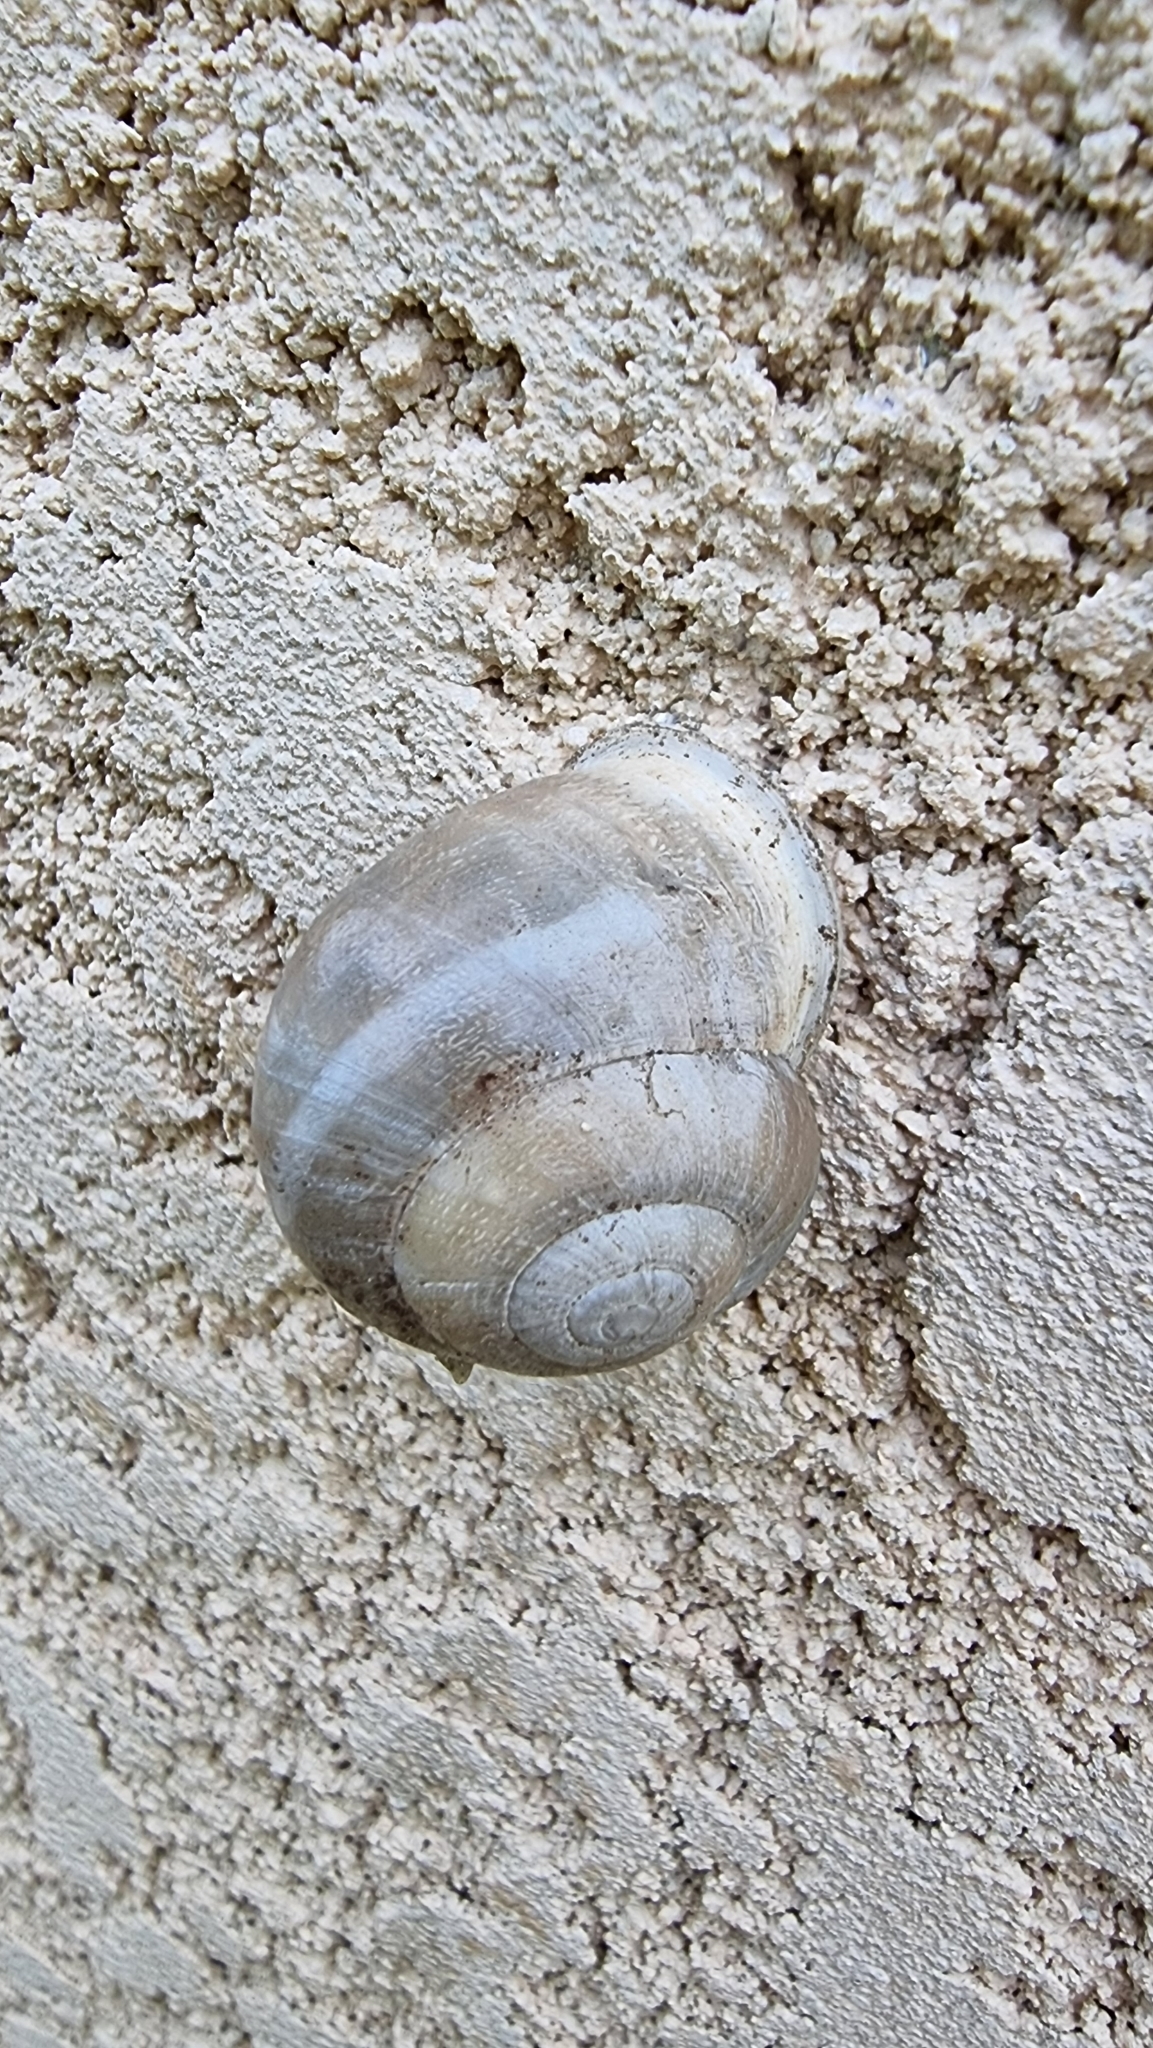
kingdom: Animalia
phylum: Mollusca
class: Gastropoda
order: Stylommatophora
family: Helicidae
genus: Eobania
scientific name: Eobania vermiculata
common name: Chocolateband snail
